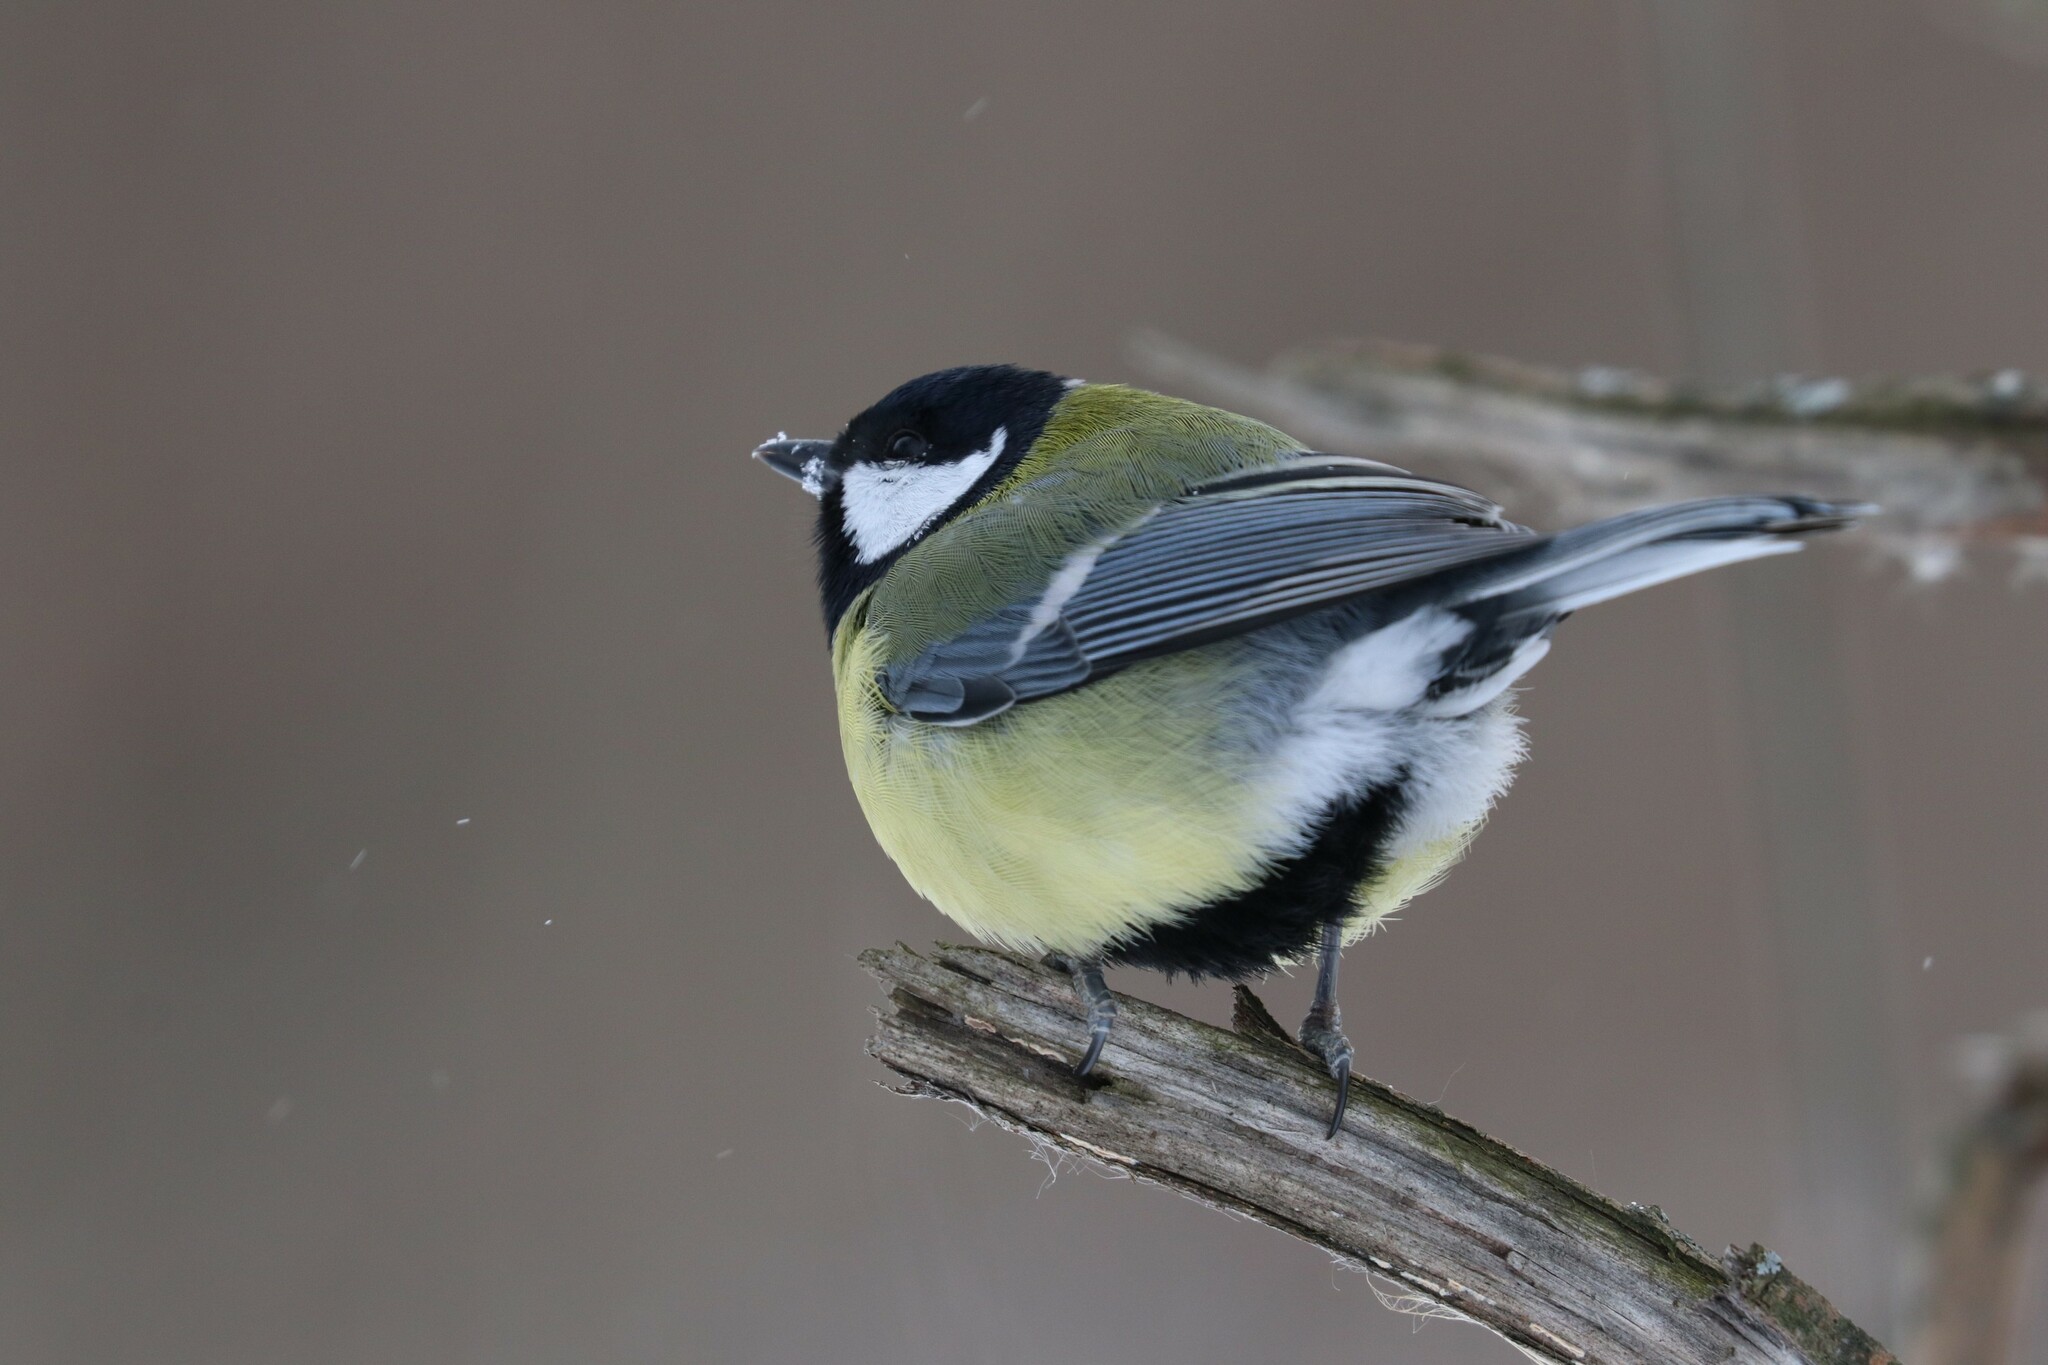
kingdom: Animalia
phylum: Chordata
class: Aves
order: Passeriformes
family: Paridae
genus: Parus
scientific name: Parus major
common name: Great tit
